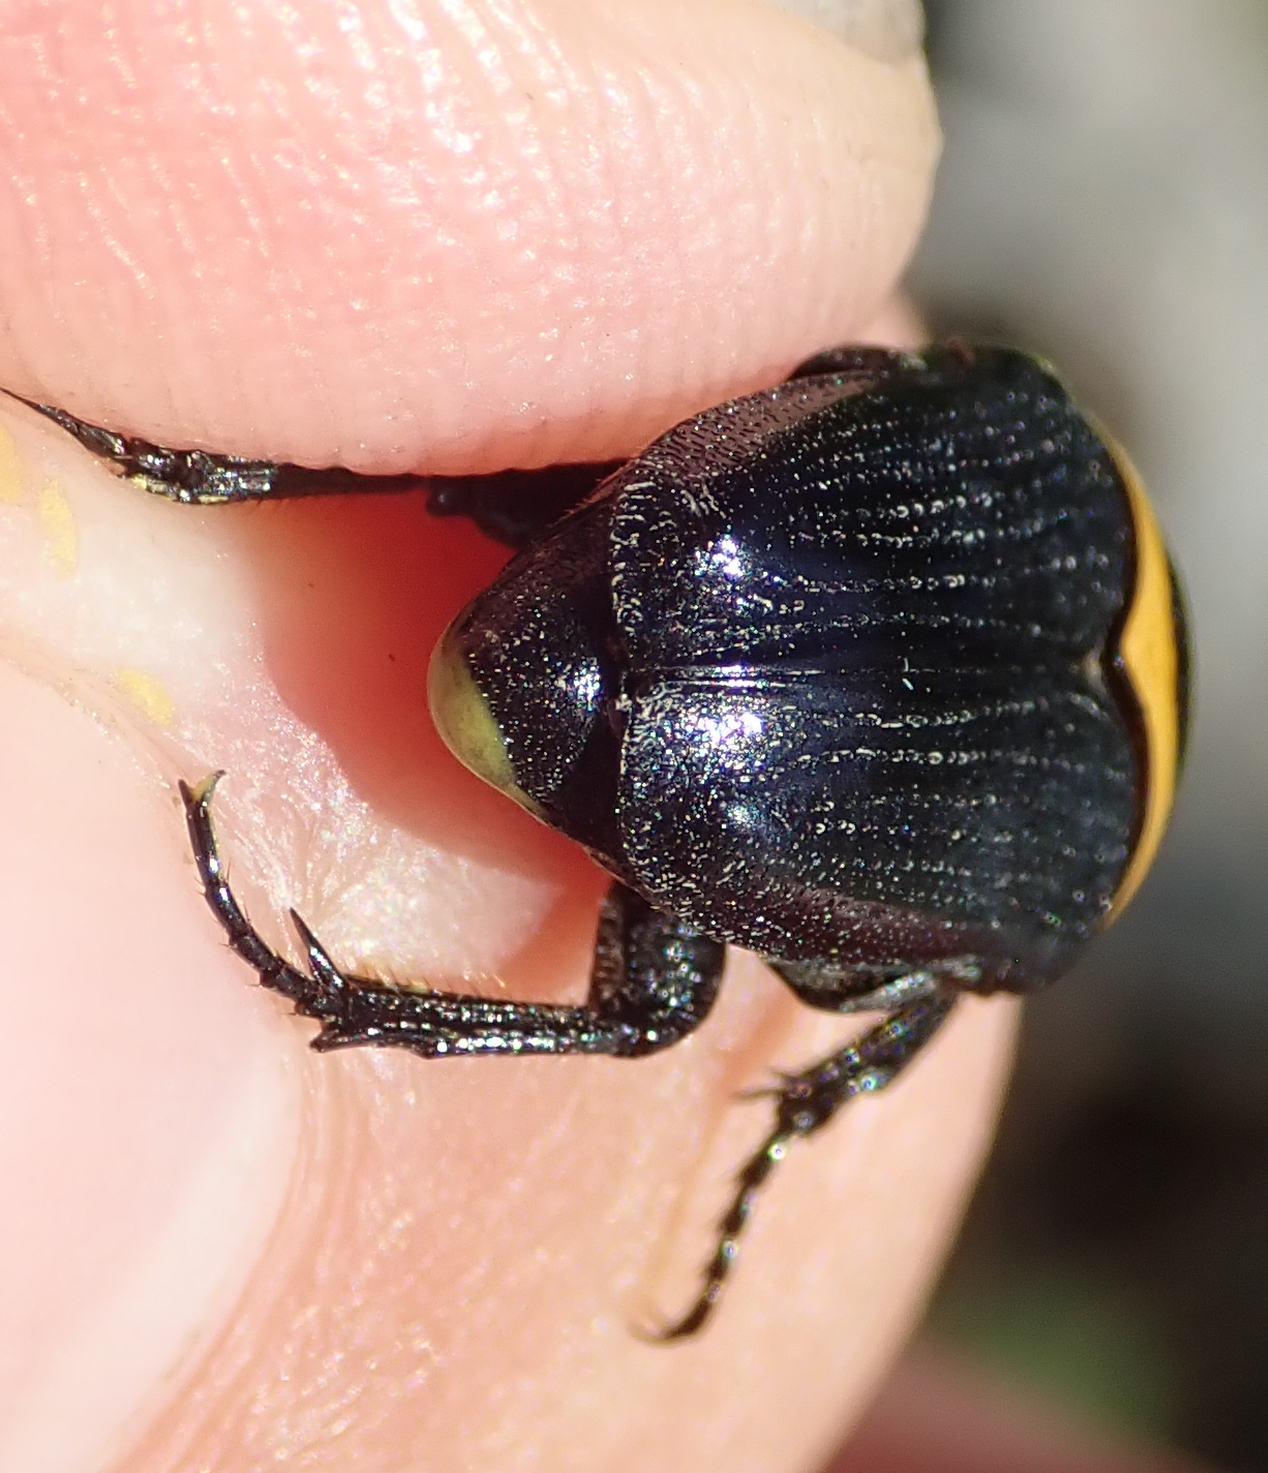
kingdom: Animalia
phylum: Arthropoda
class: Insecta
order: Coleoptera
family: Scarabaeidae
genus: Pseudoclinteria
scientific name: Pseudoclinteria cincticollis
